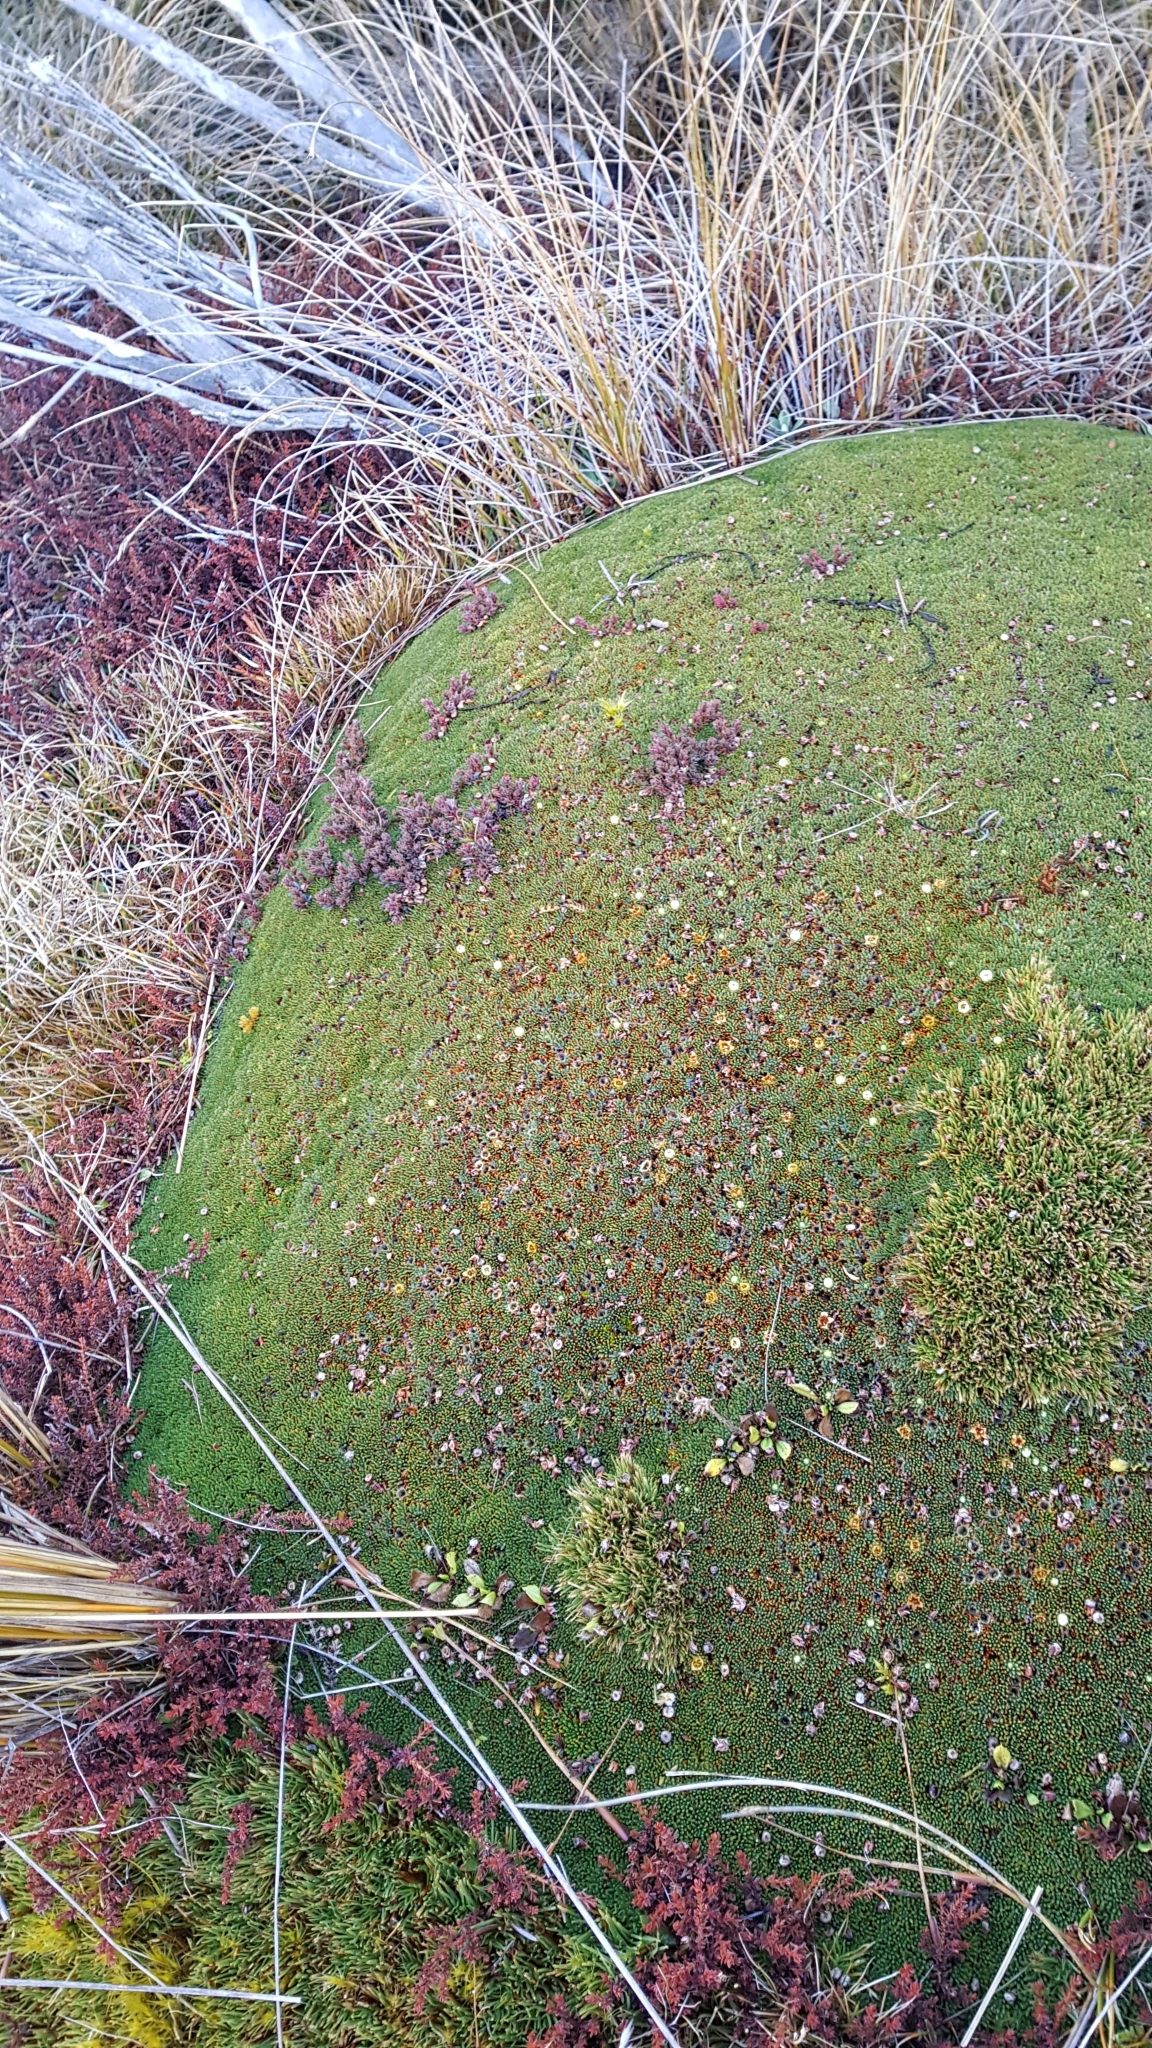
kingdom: Plantae
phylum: Tracheophyta
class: Magnoliopsida
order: Asterales
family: Stylidiaceae
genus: Donatia
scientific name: Donatia novae-zelandiae
